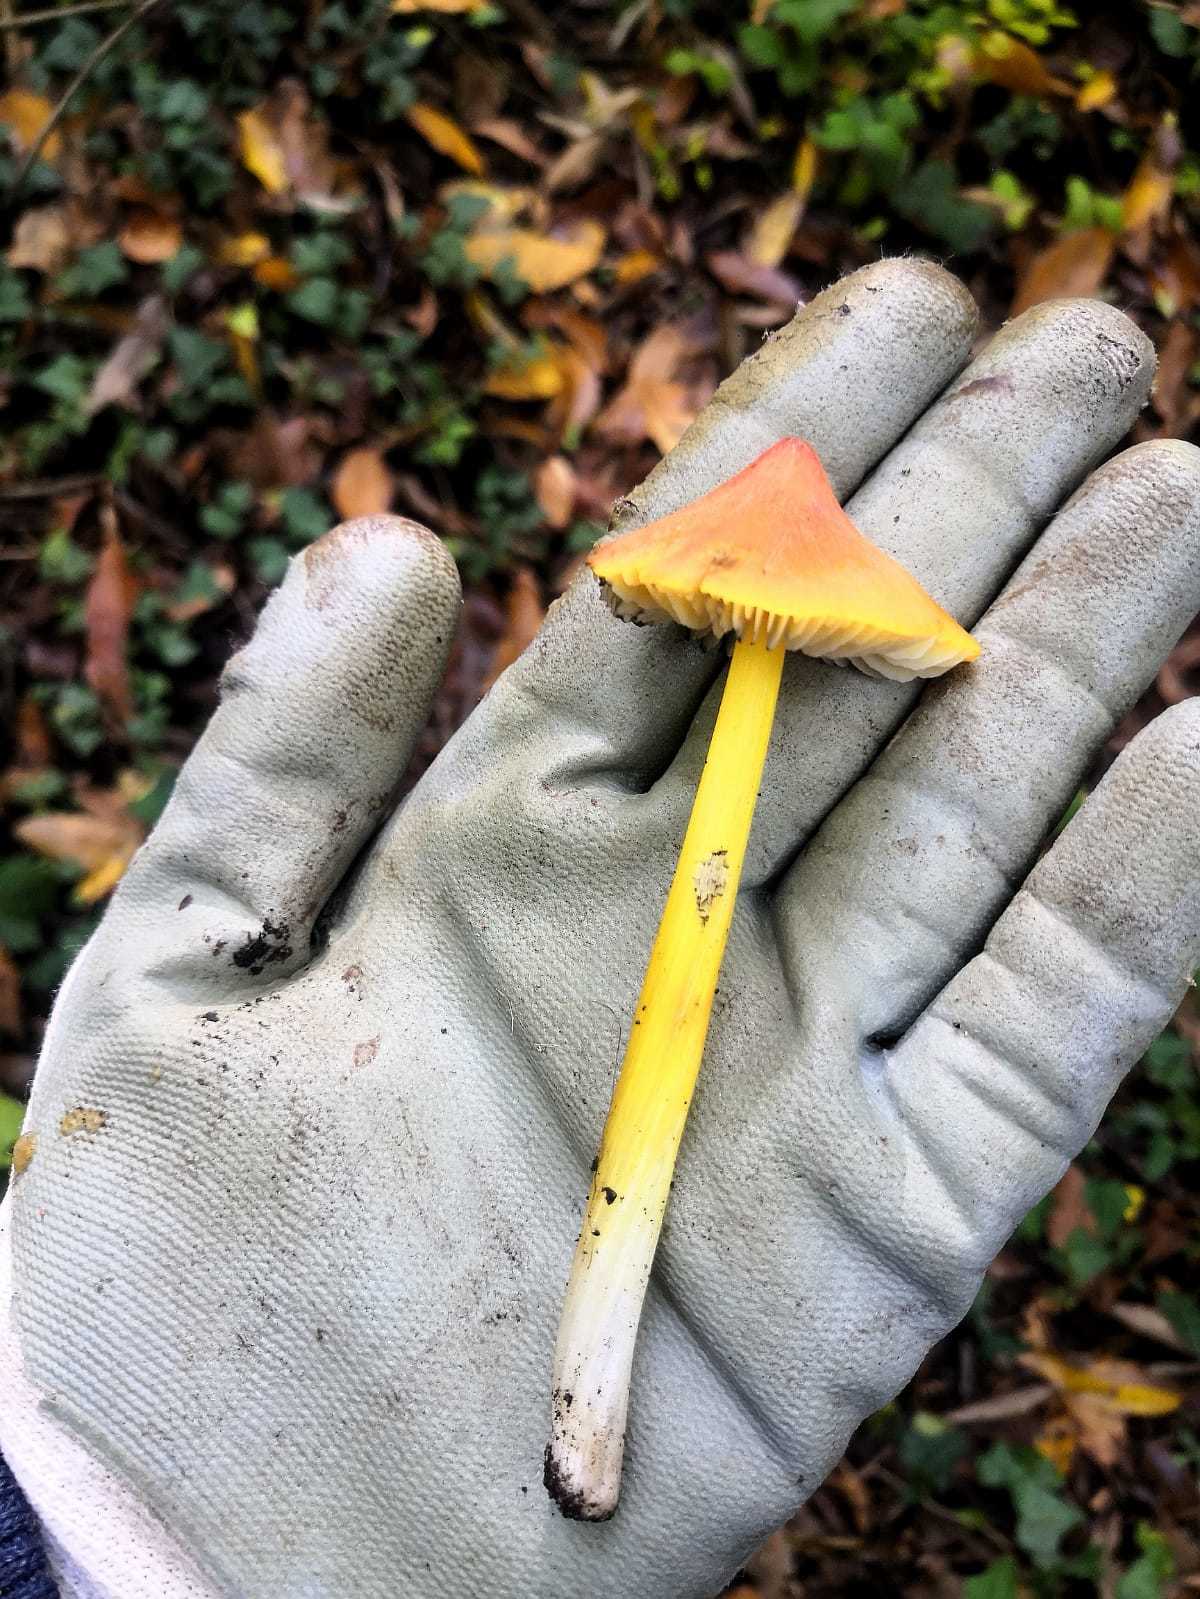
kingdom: Fungi
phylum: Basidiomycota
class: Agaricomycetes
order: Agaricales
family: Hygrophoraceae
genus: Hygrocybe
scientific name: Hygrocybe conica
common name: Blackening wax-cap
